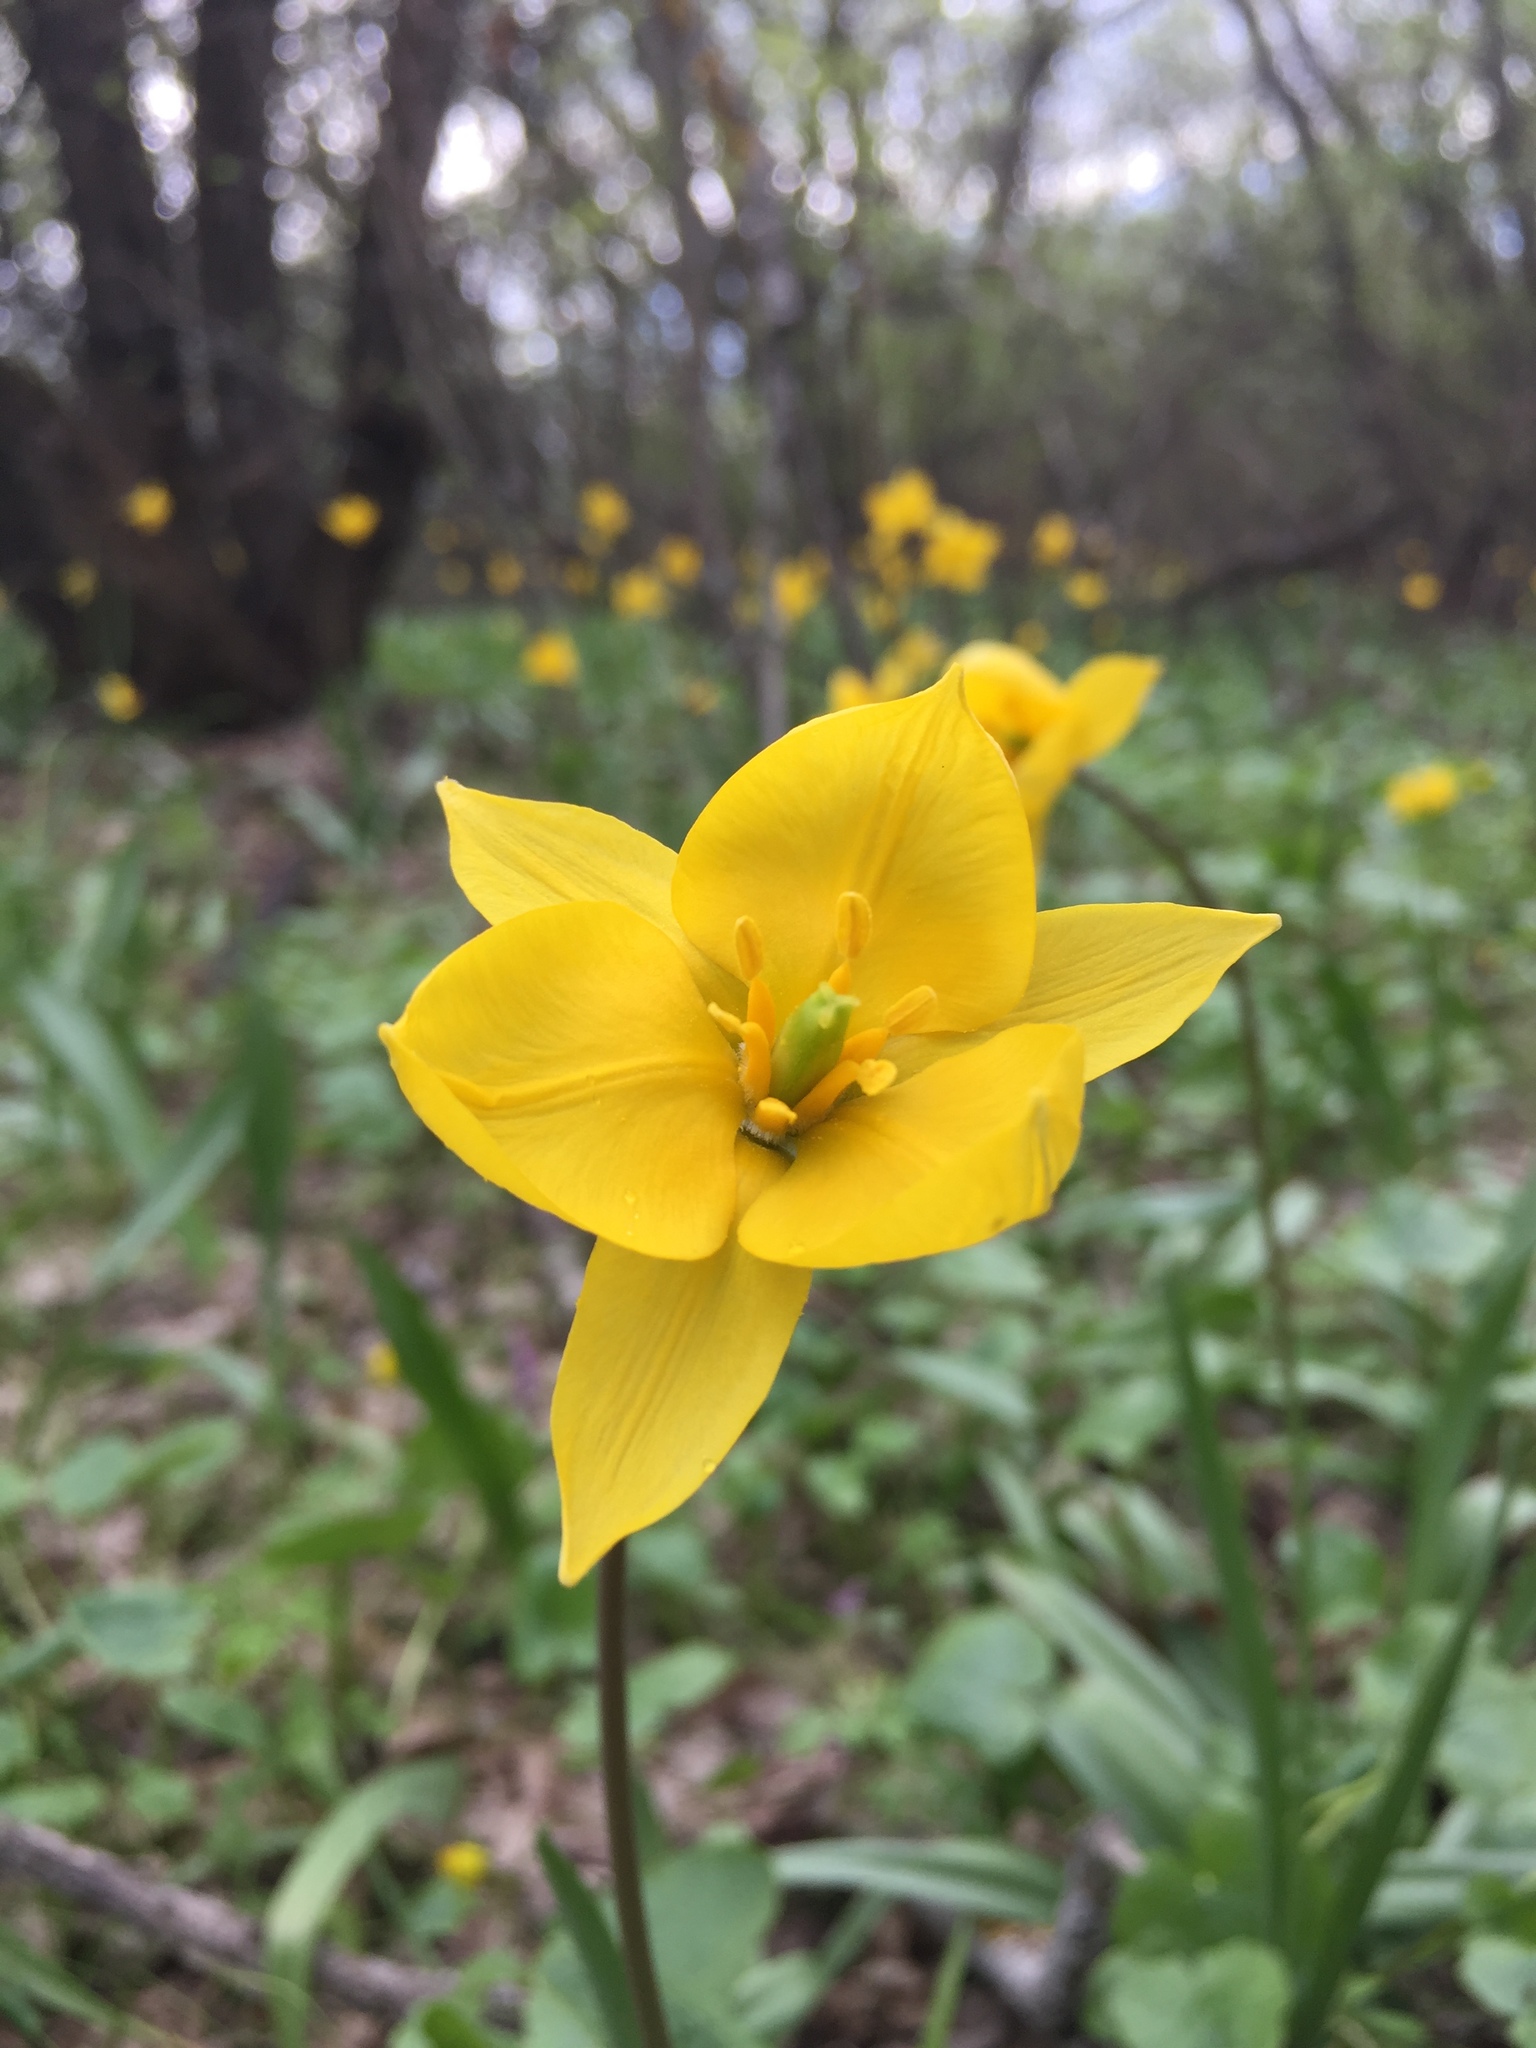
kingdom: Plantae
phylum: Tracheophyta
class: Liliopsida
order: Liliales
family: Liliaceae
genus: Tulipa
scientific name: Tulipa sylvestris
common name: Wild tulip
